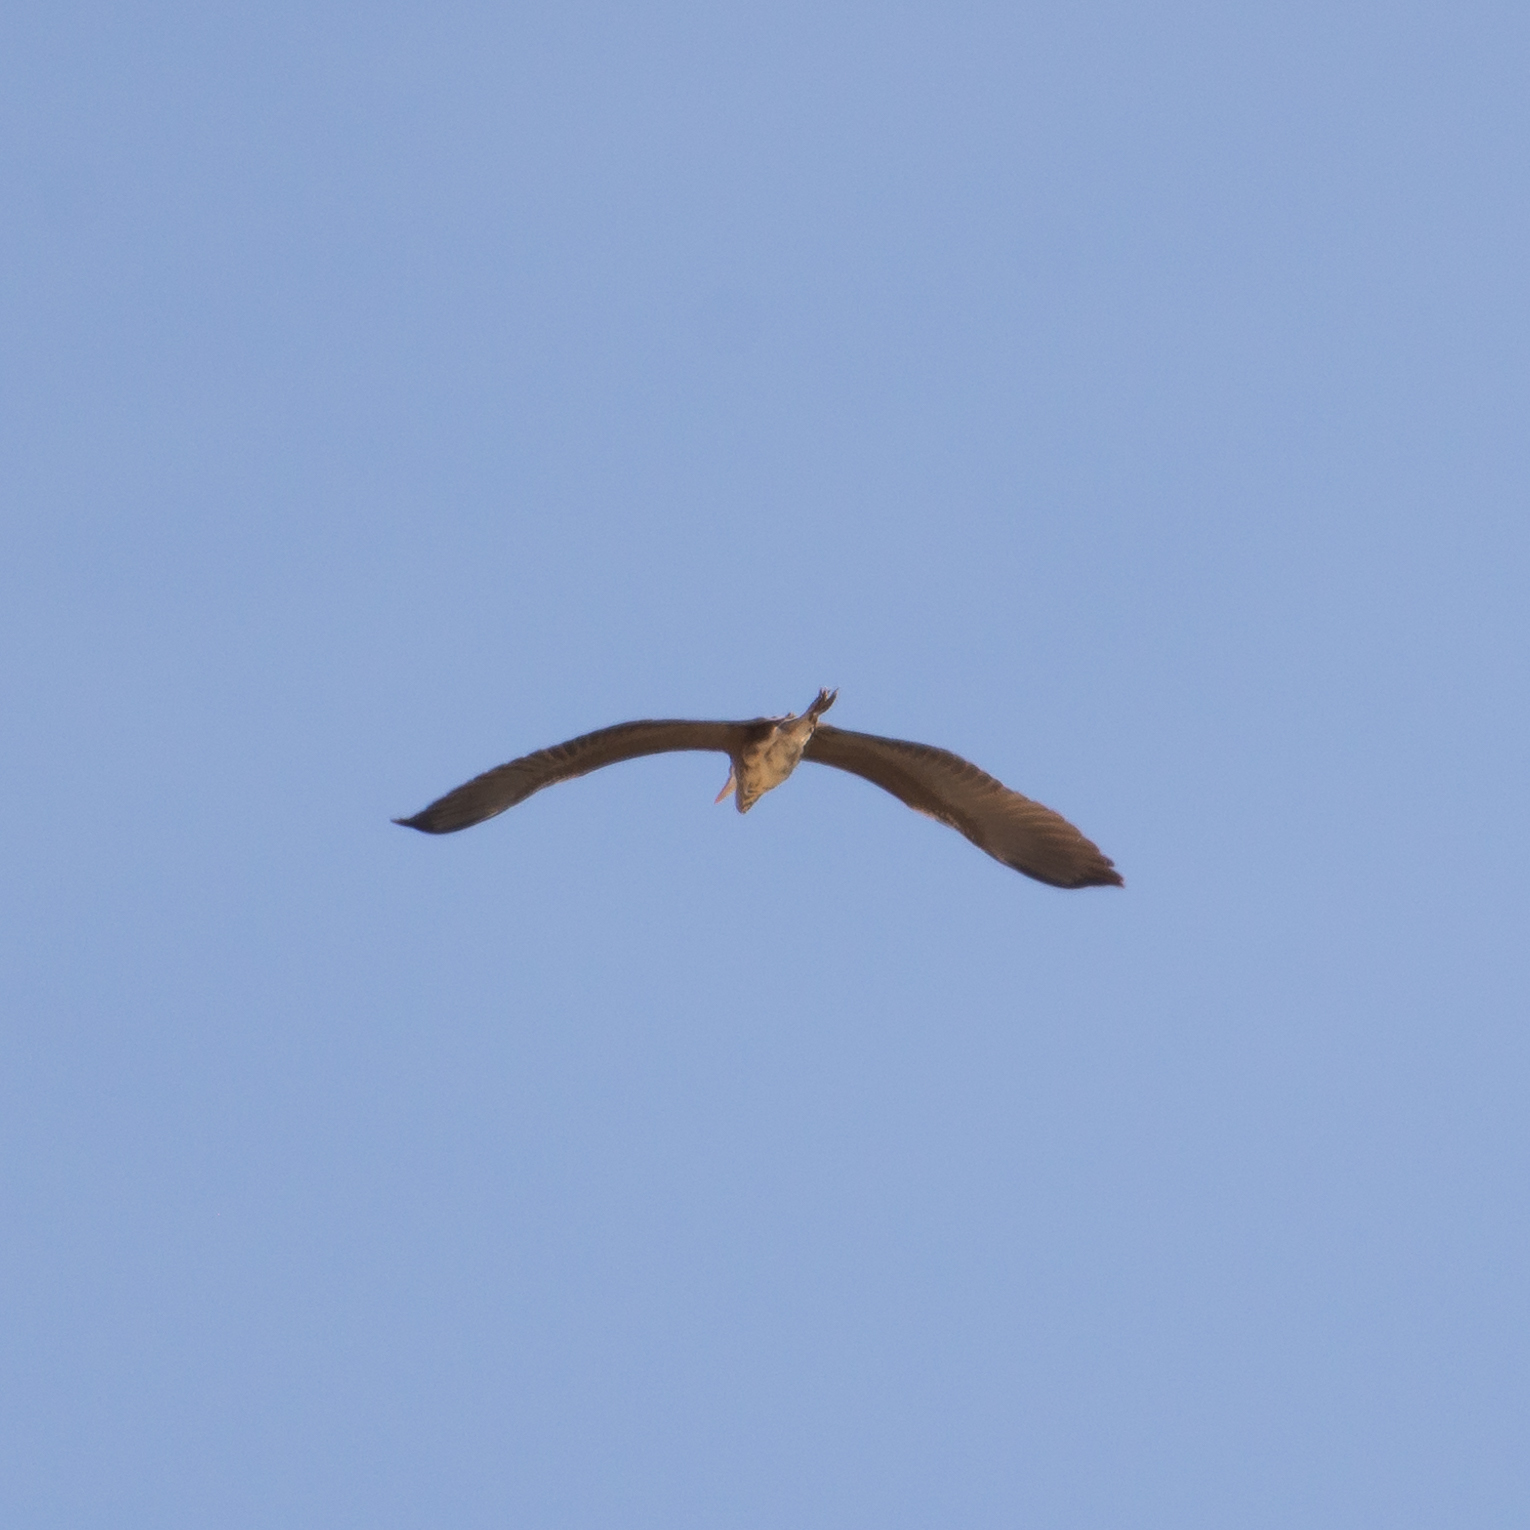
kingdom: Animalia
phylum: Chordata
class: Aves
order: Pelecaniformes
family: Ardeidae
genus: Ardea
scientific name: Ardea cinerea
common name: Grey heron
